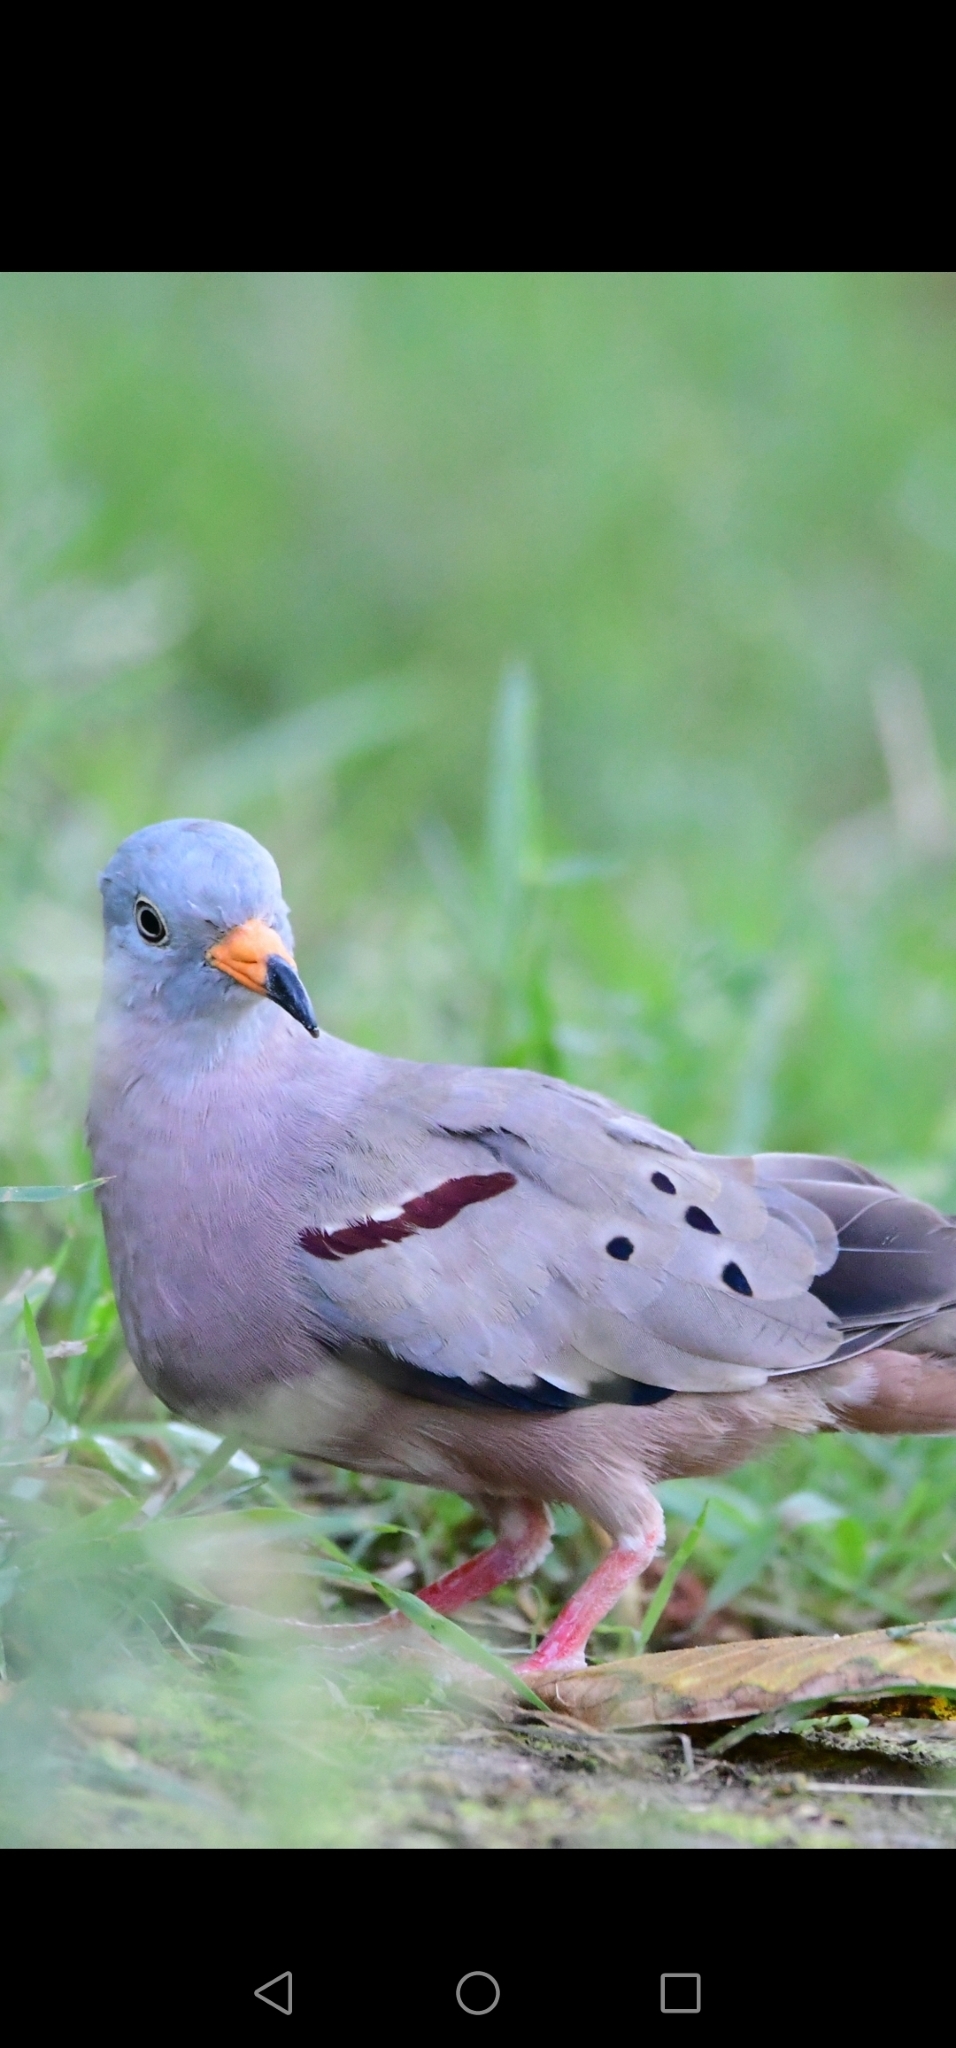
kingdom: Animalia
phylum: Chordata
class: Aves
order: Columbiformes
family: Columbidae
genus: Columbina
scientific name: Columbina cruziana
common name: Croaking ground dove
